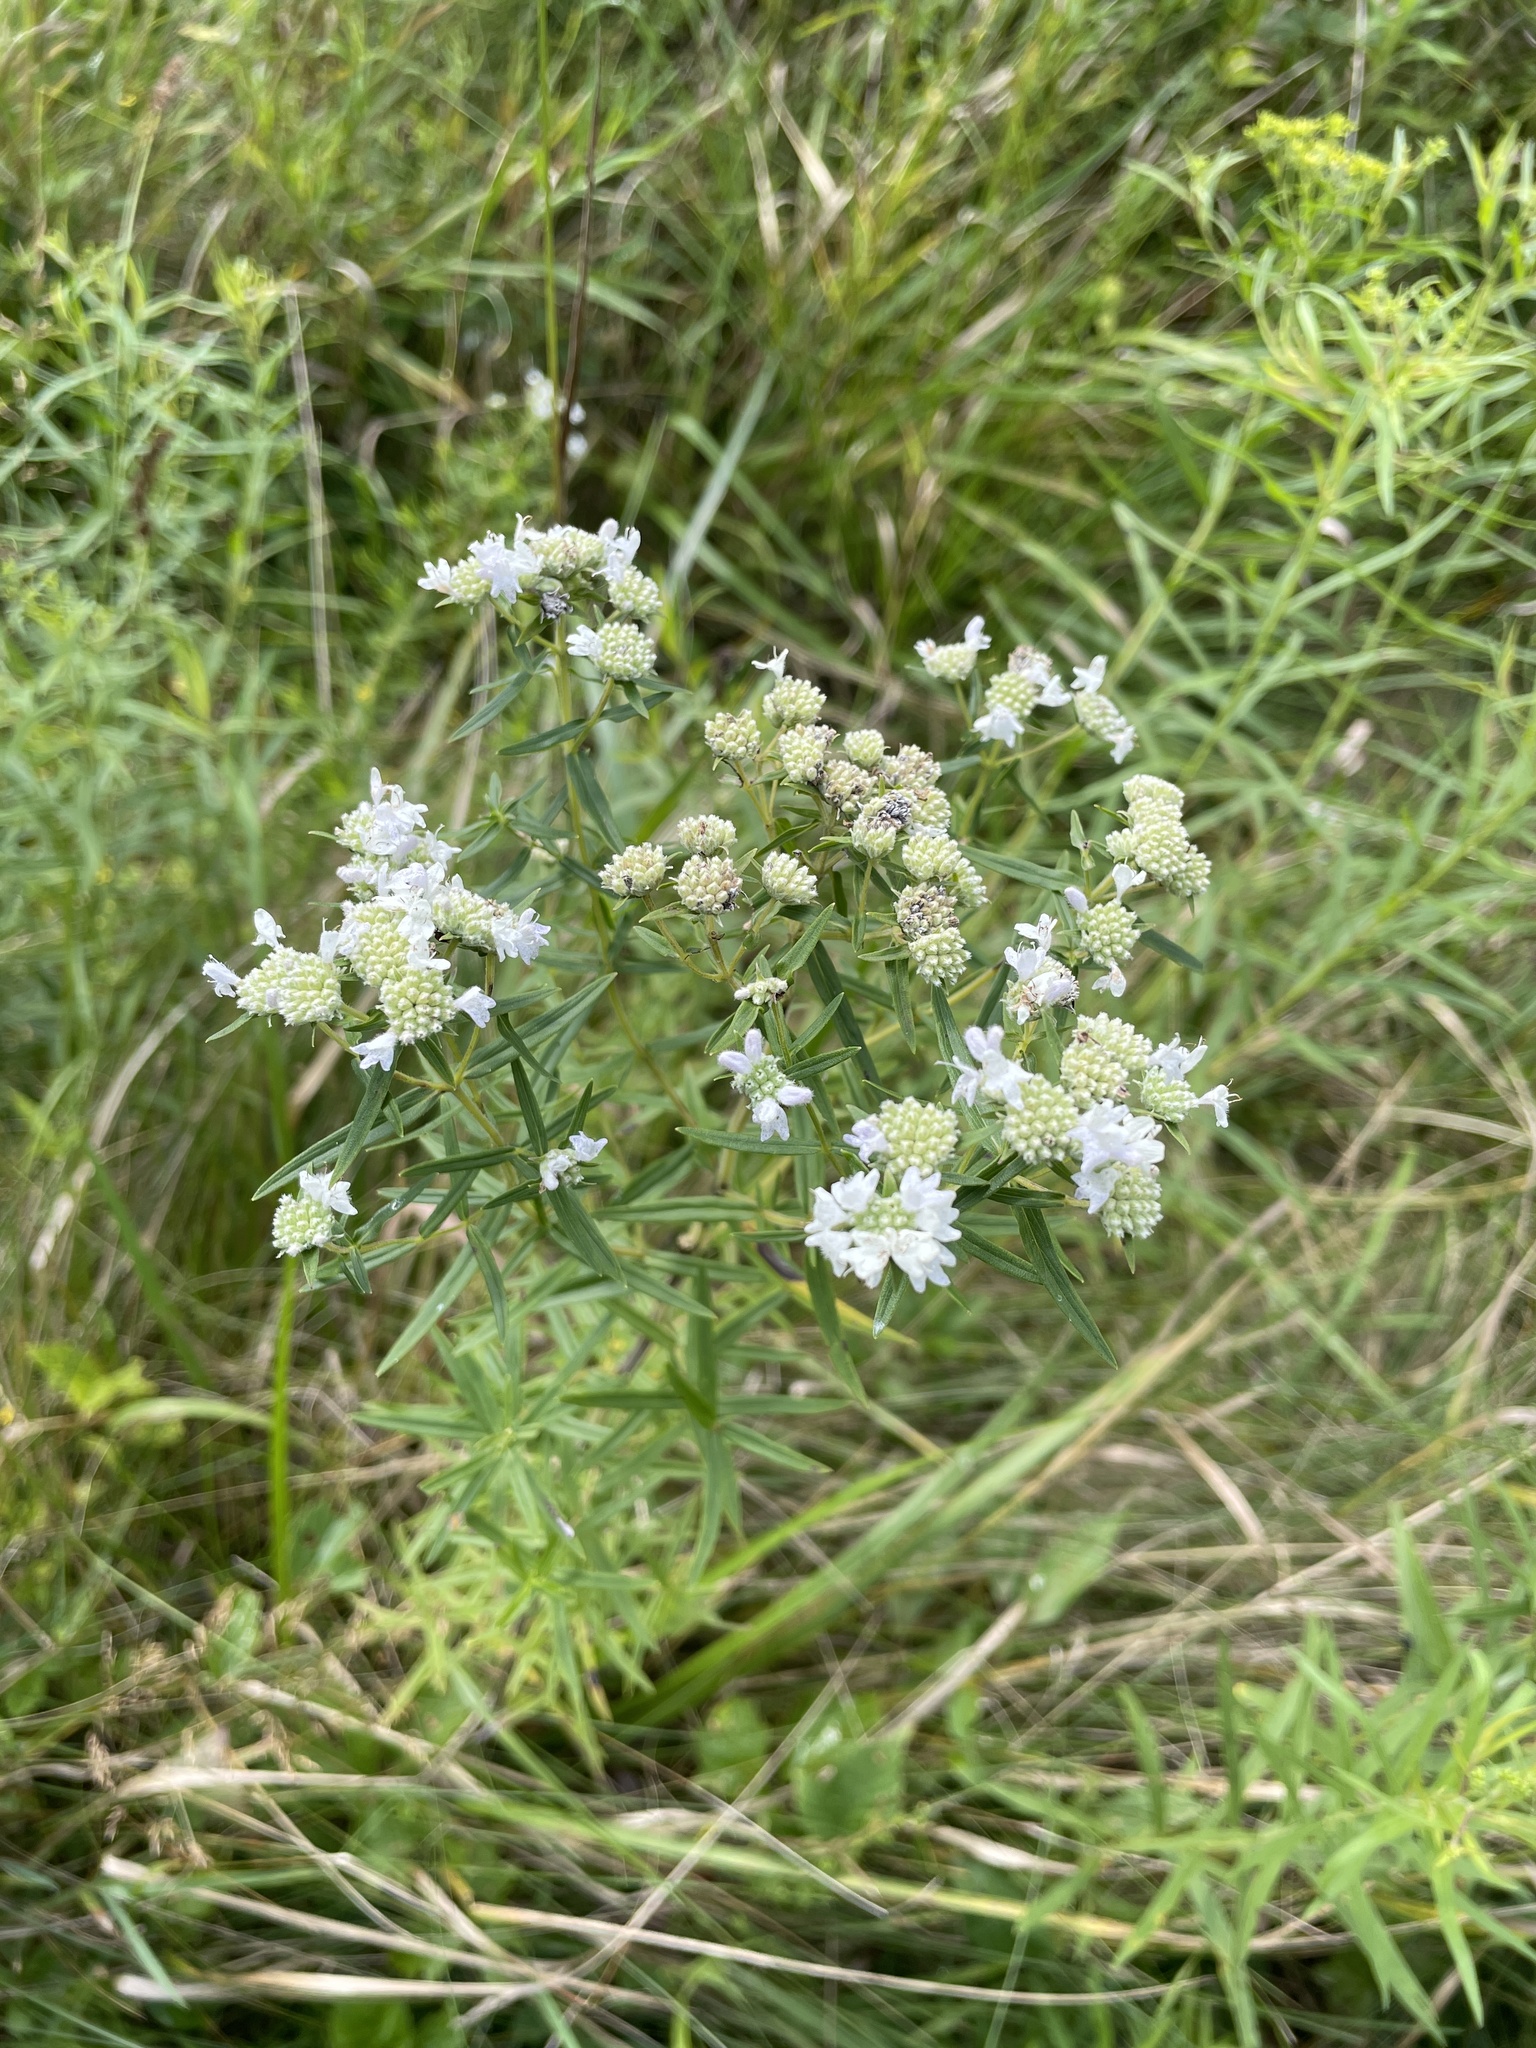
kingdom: Plantae
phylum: Tracheophyta
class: Magnoliopsida
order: Lamiales
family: Lamiaceae
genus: Pycnanthemum
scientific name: Pycnanthemum virginianum
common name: Virginia mountain-mint
